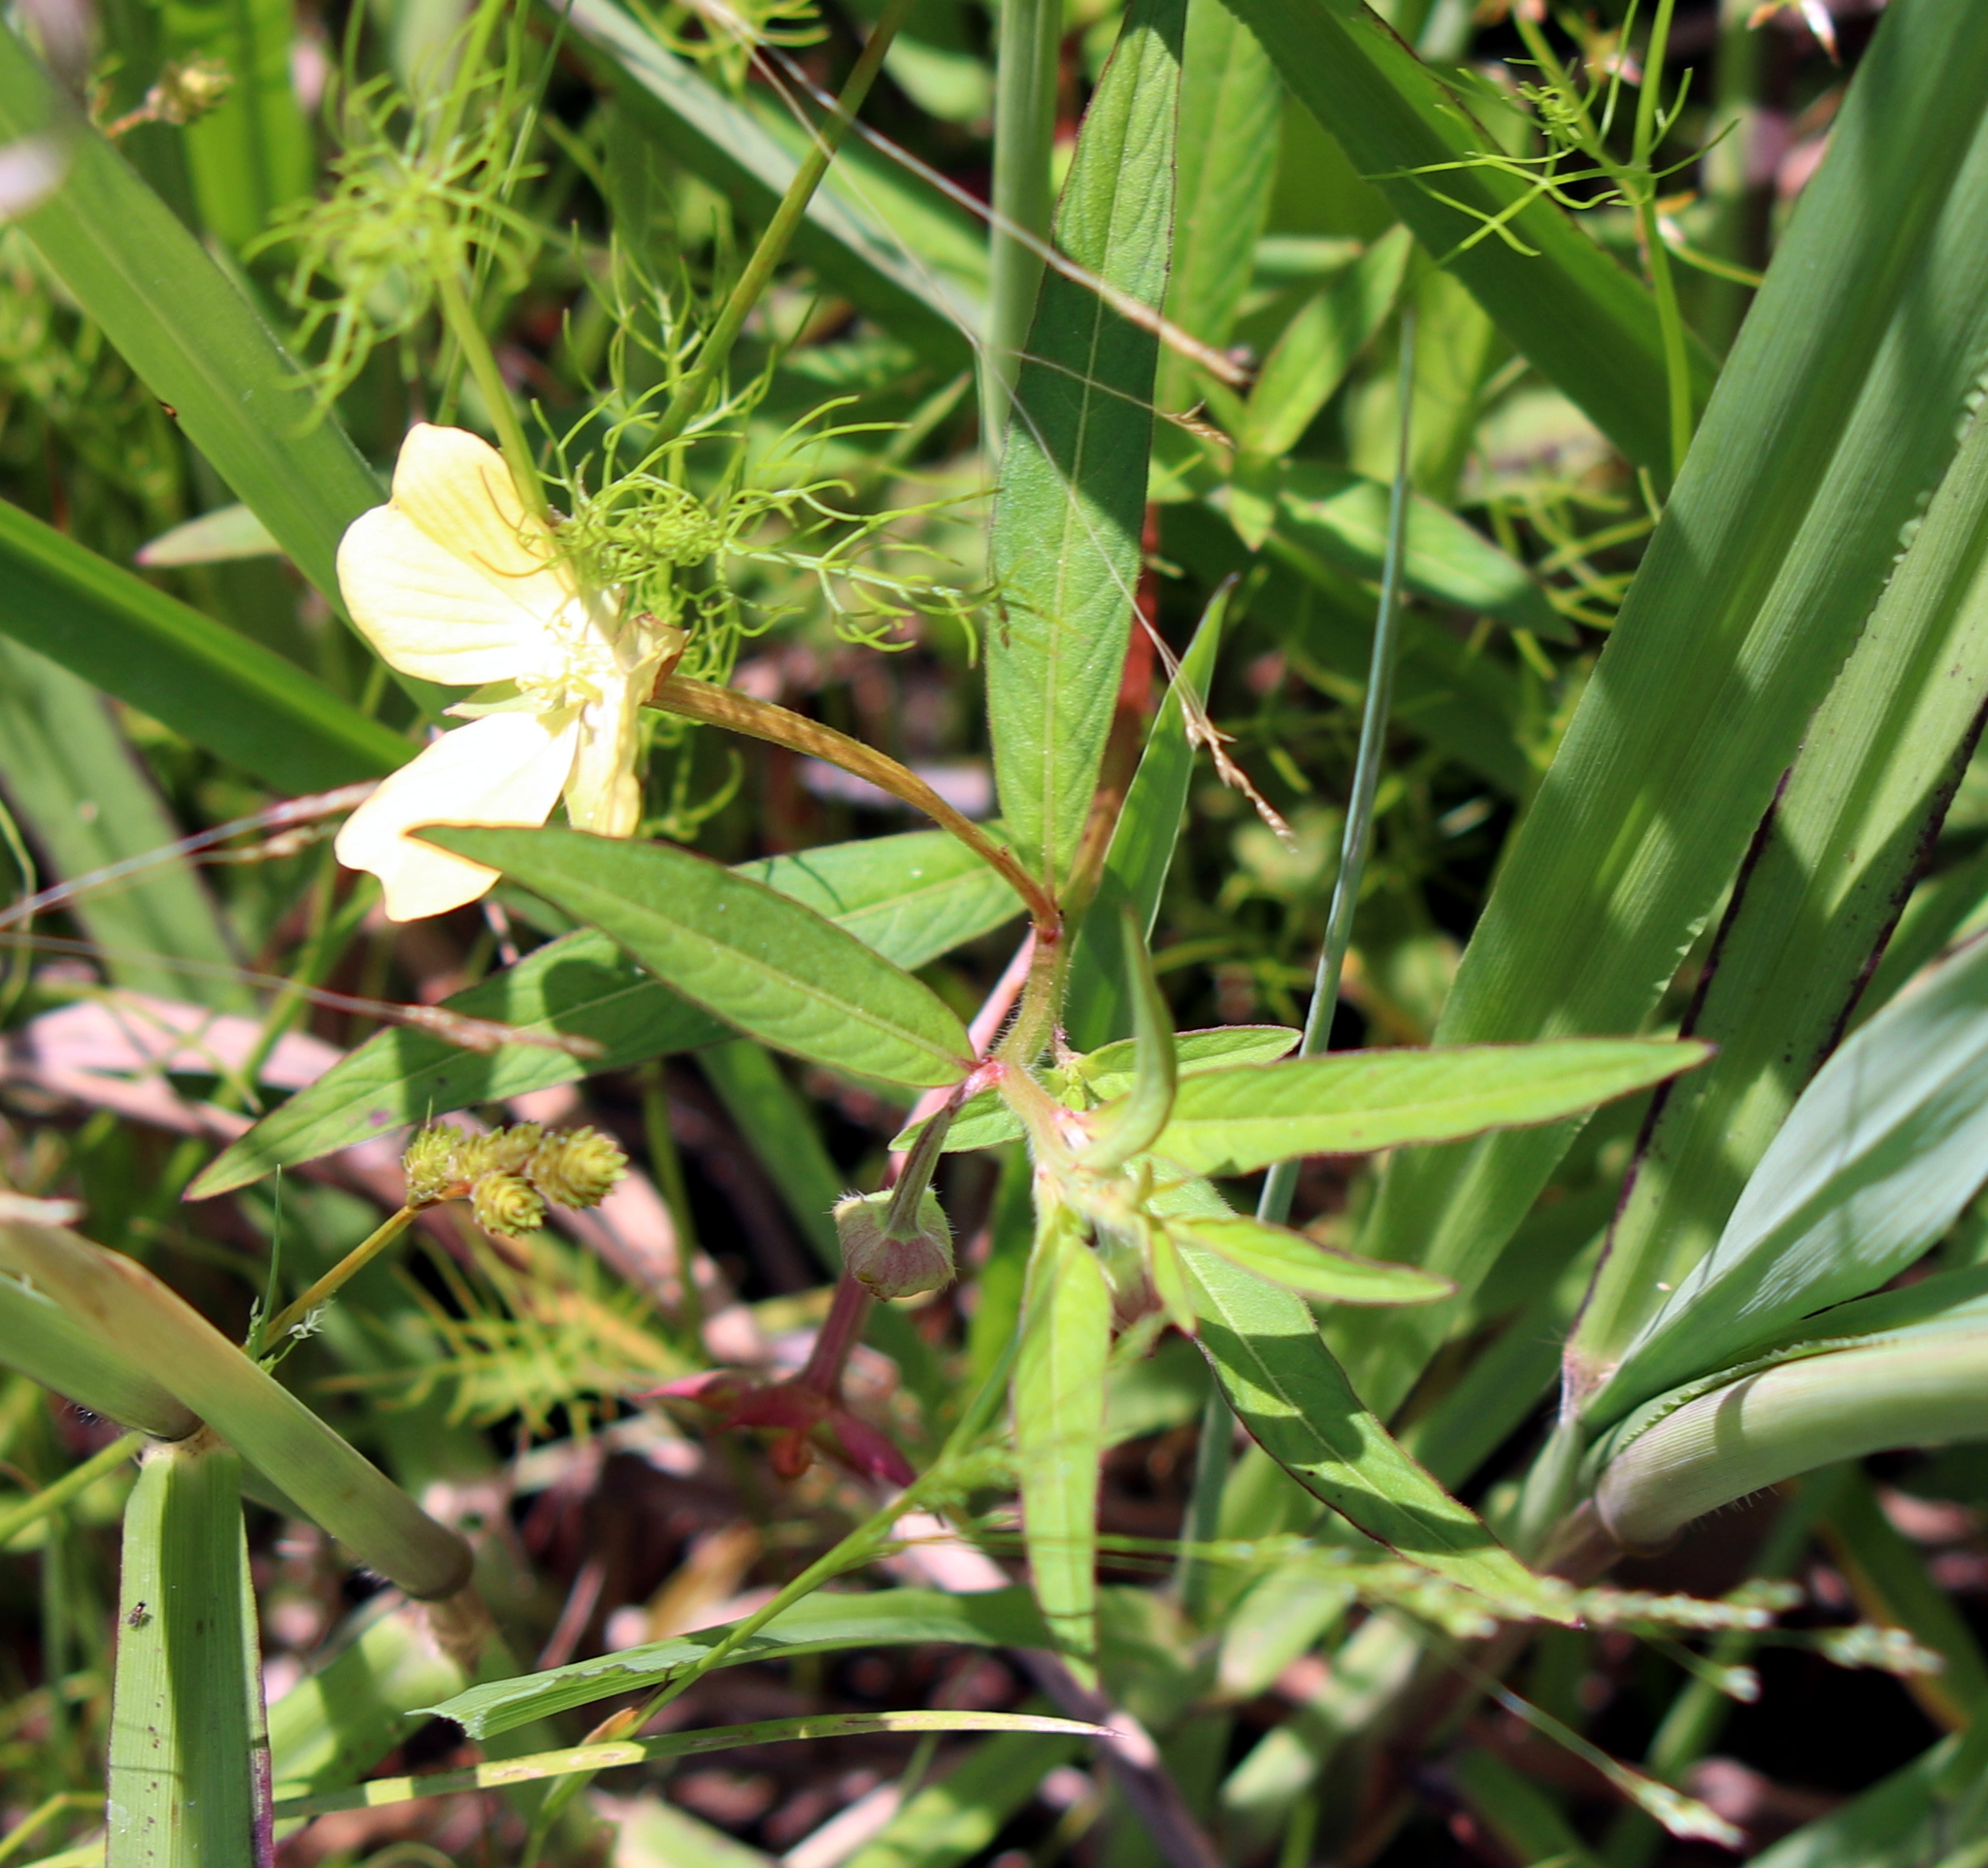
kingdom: Plantae
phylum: Tracheophyta
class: Magnoliopsida
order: Myrtales
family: Onagraceae
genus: Ludwigia
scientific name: Ludwigia octovalvis
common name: Water-primrose
